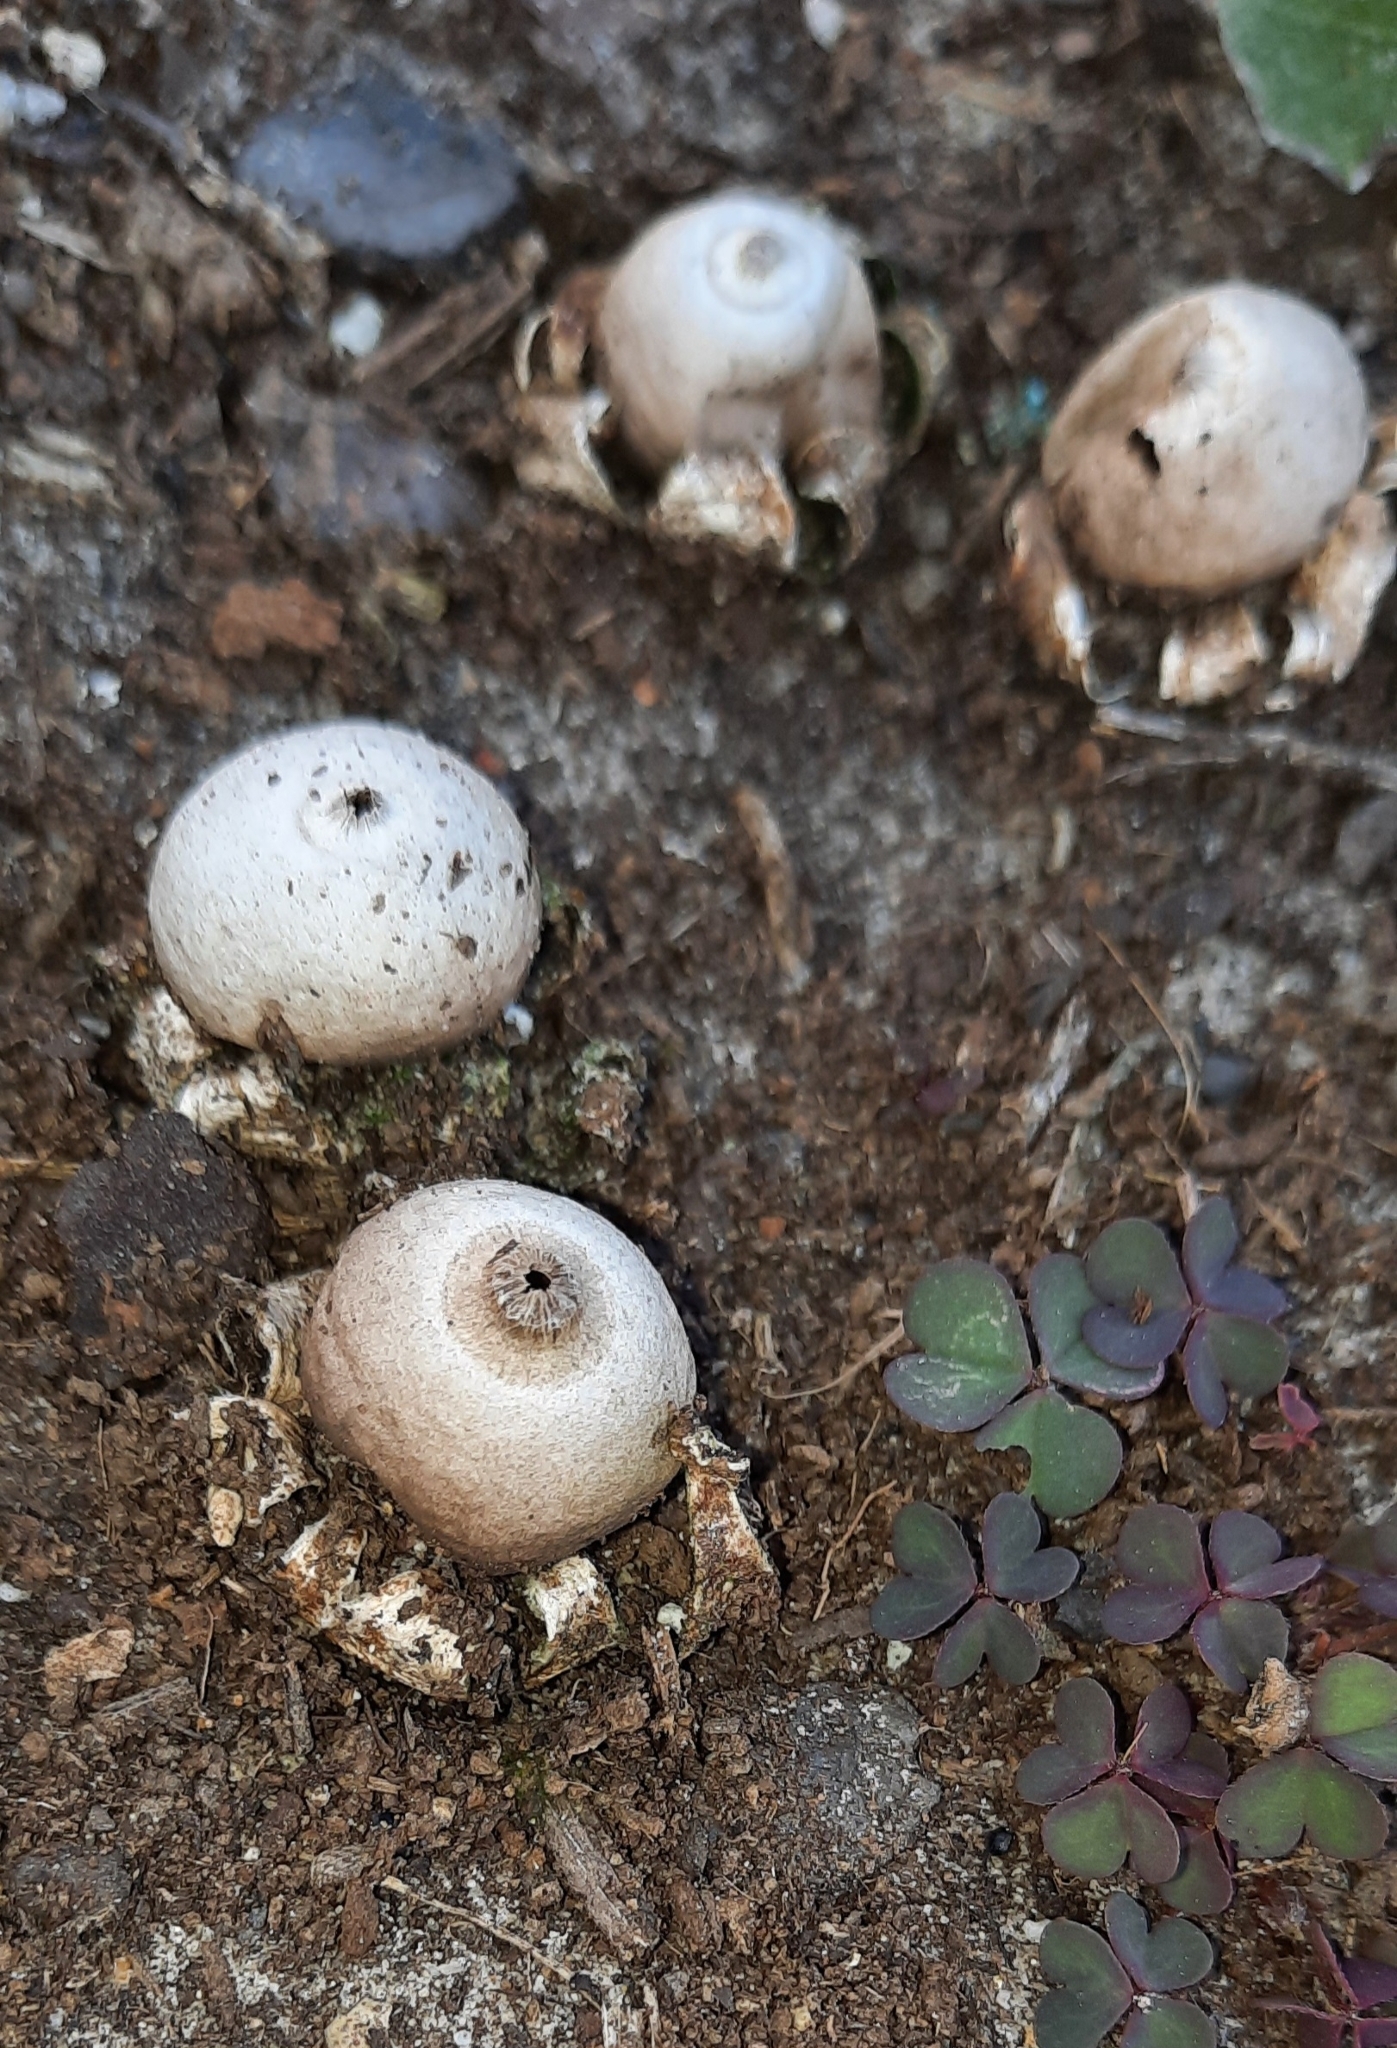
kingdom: Fungi
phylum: Basidiomycota
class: Agaricomycetes
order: Geastrales
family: Geastraceae
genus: Geastrum
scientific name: Geastrum triplex
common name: Collared earthstar
